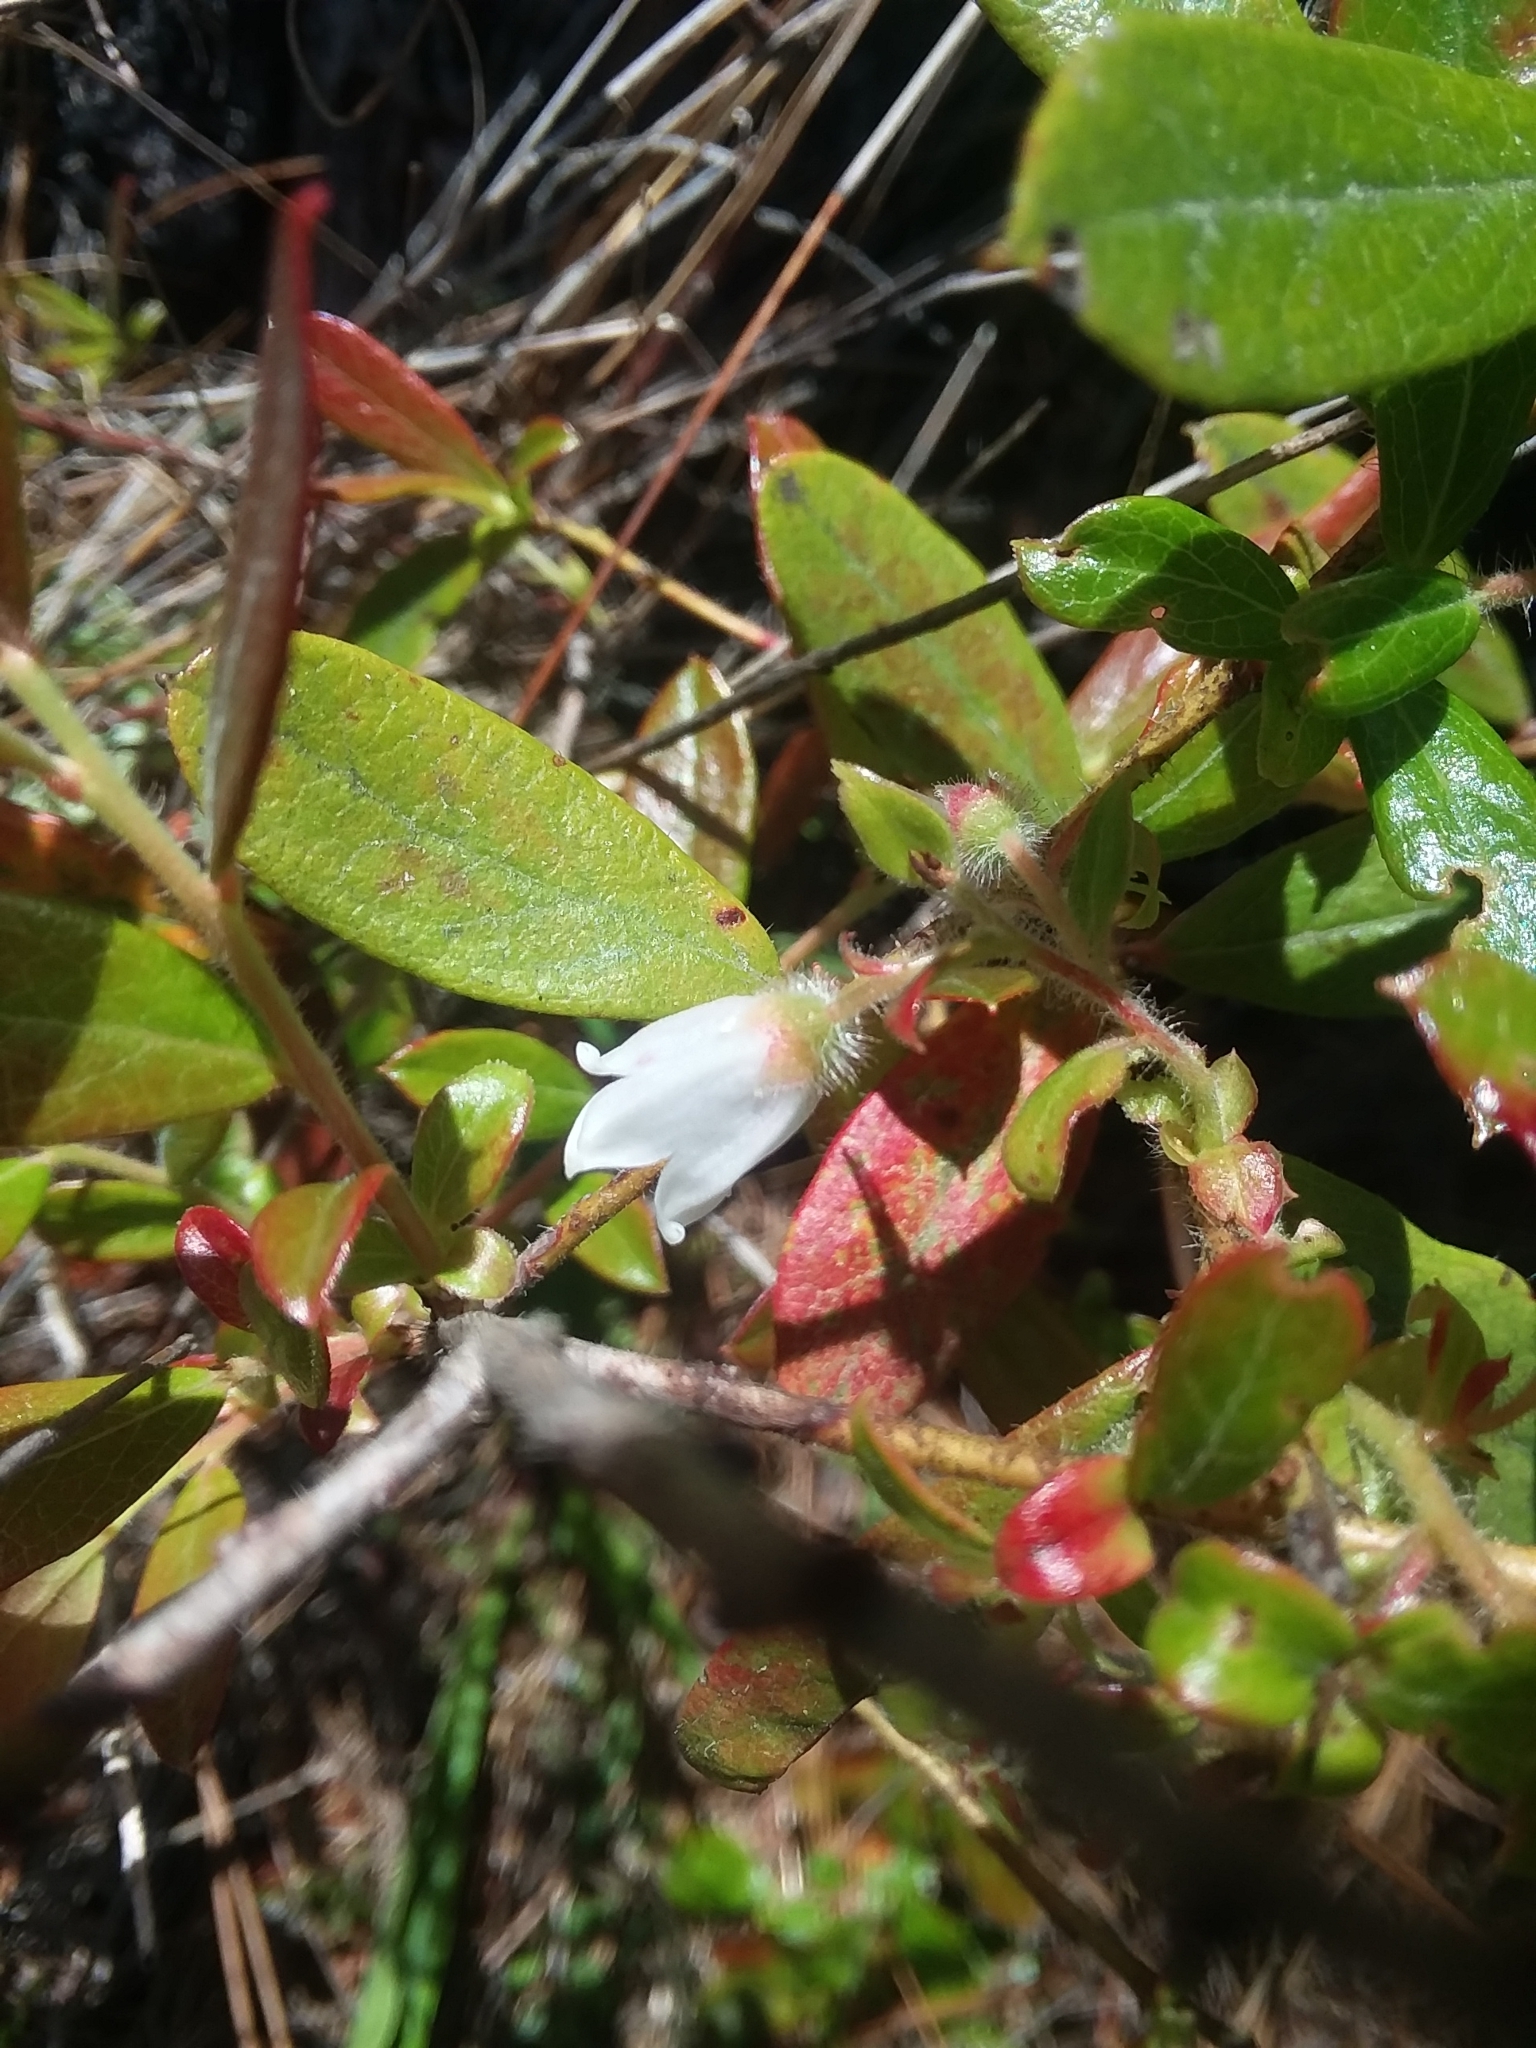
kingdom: Plantae
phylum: Tracheophyta
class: Magnoliopsida
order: Ericales
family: Ericaceae
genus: Gaylussacia
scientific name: Gaylussacia mosieri
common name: Hirsute huckleberry
